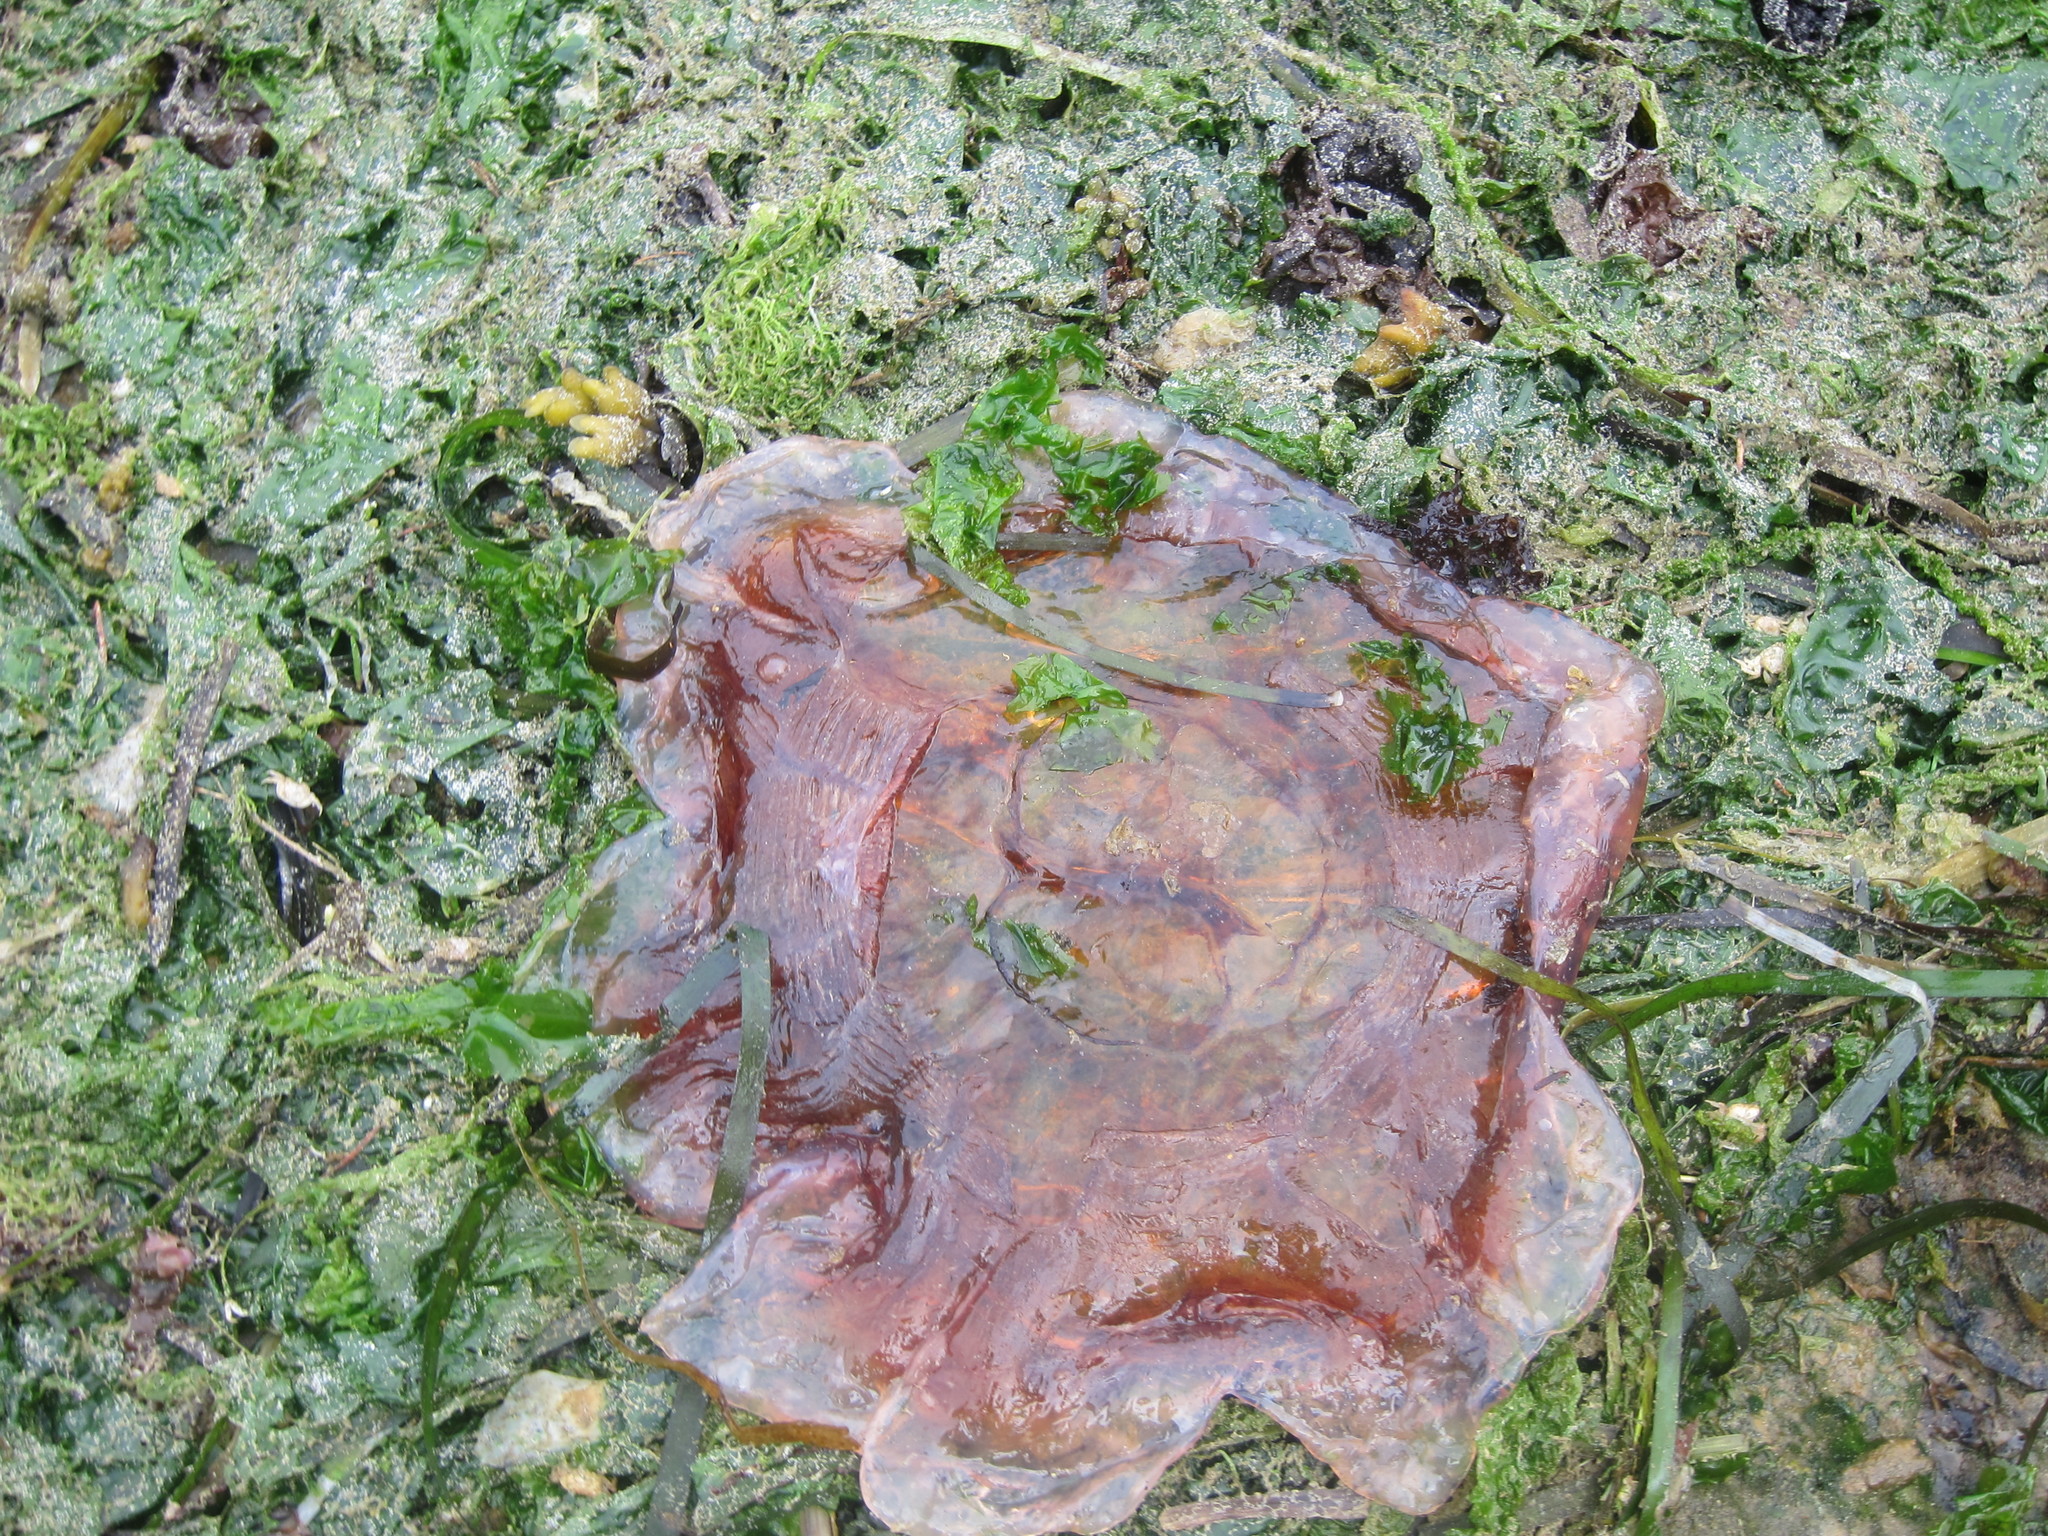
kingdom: Animalia
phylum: Cnidaria
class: Scyphozoa
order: Semaeostomeae
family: Cyaneidae
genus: Cyanea
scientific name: Cyanea ferruginea
